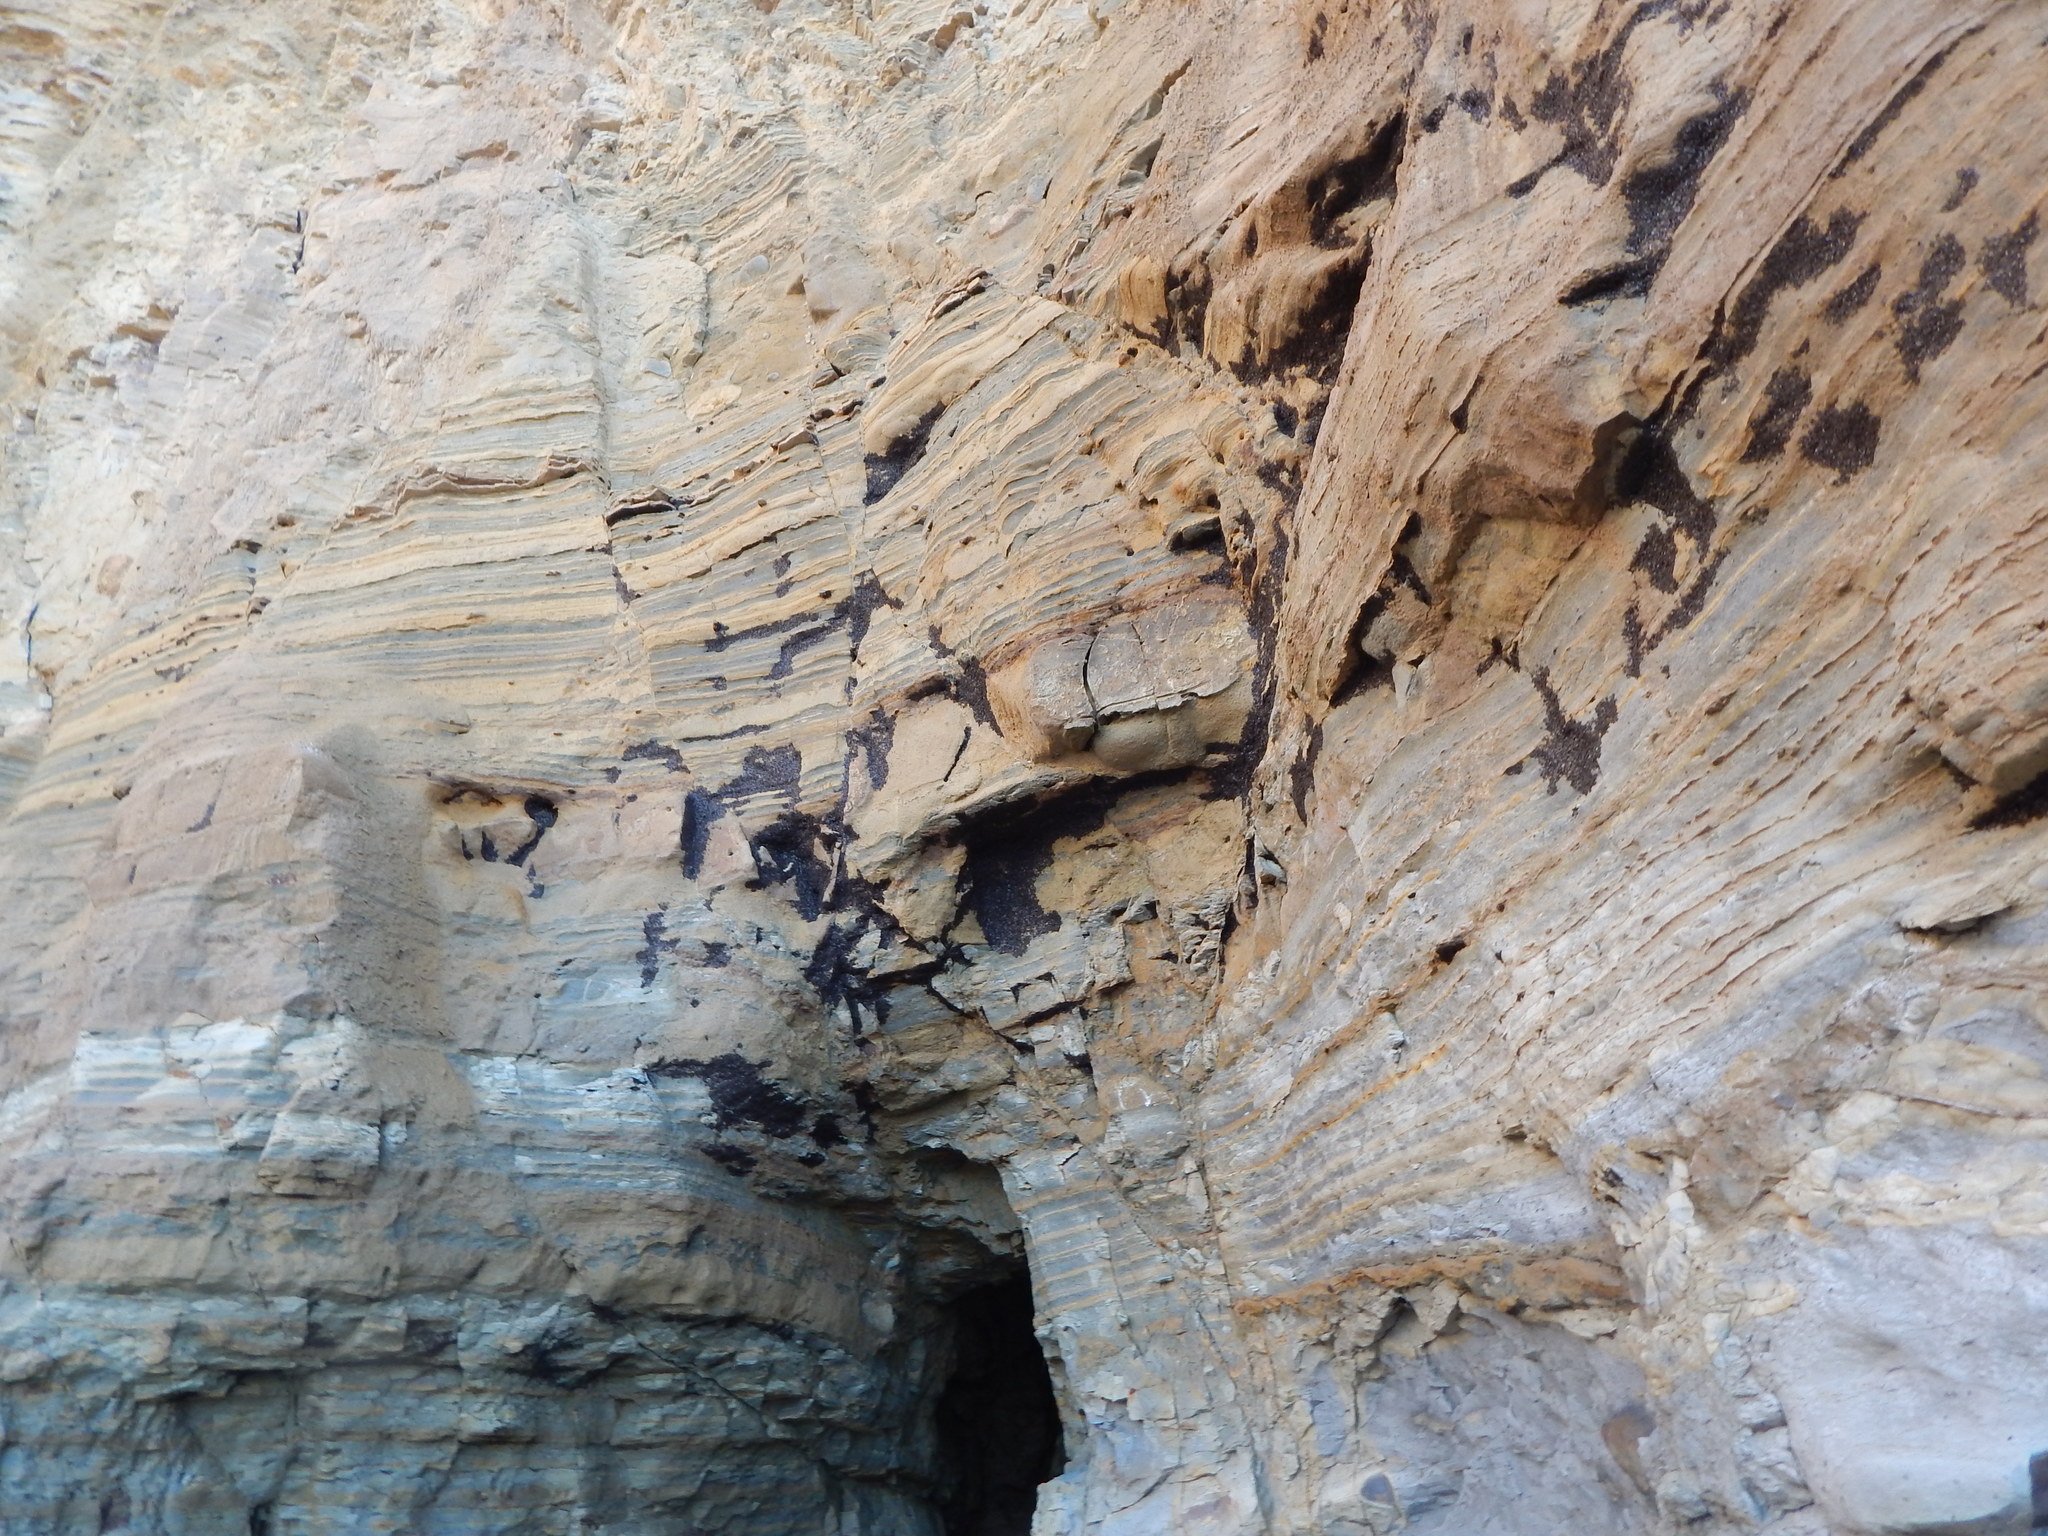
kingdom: Animalia
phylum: Arthropoda
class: Insecta
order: Diptera
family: Coelopidae
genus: Coelopa
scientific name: Coelopa vanduzeei
